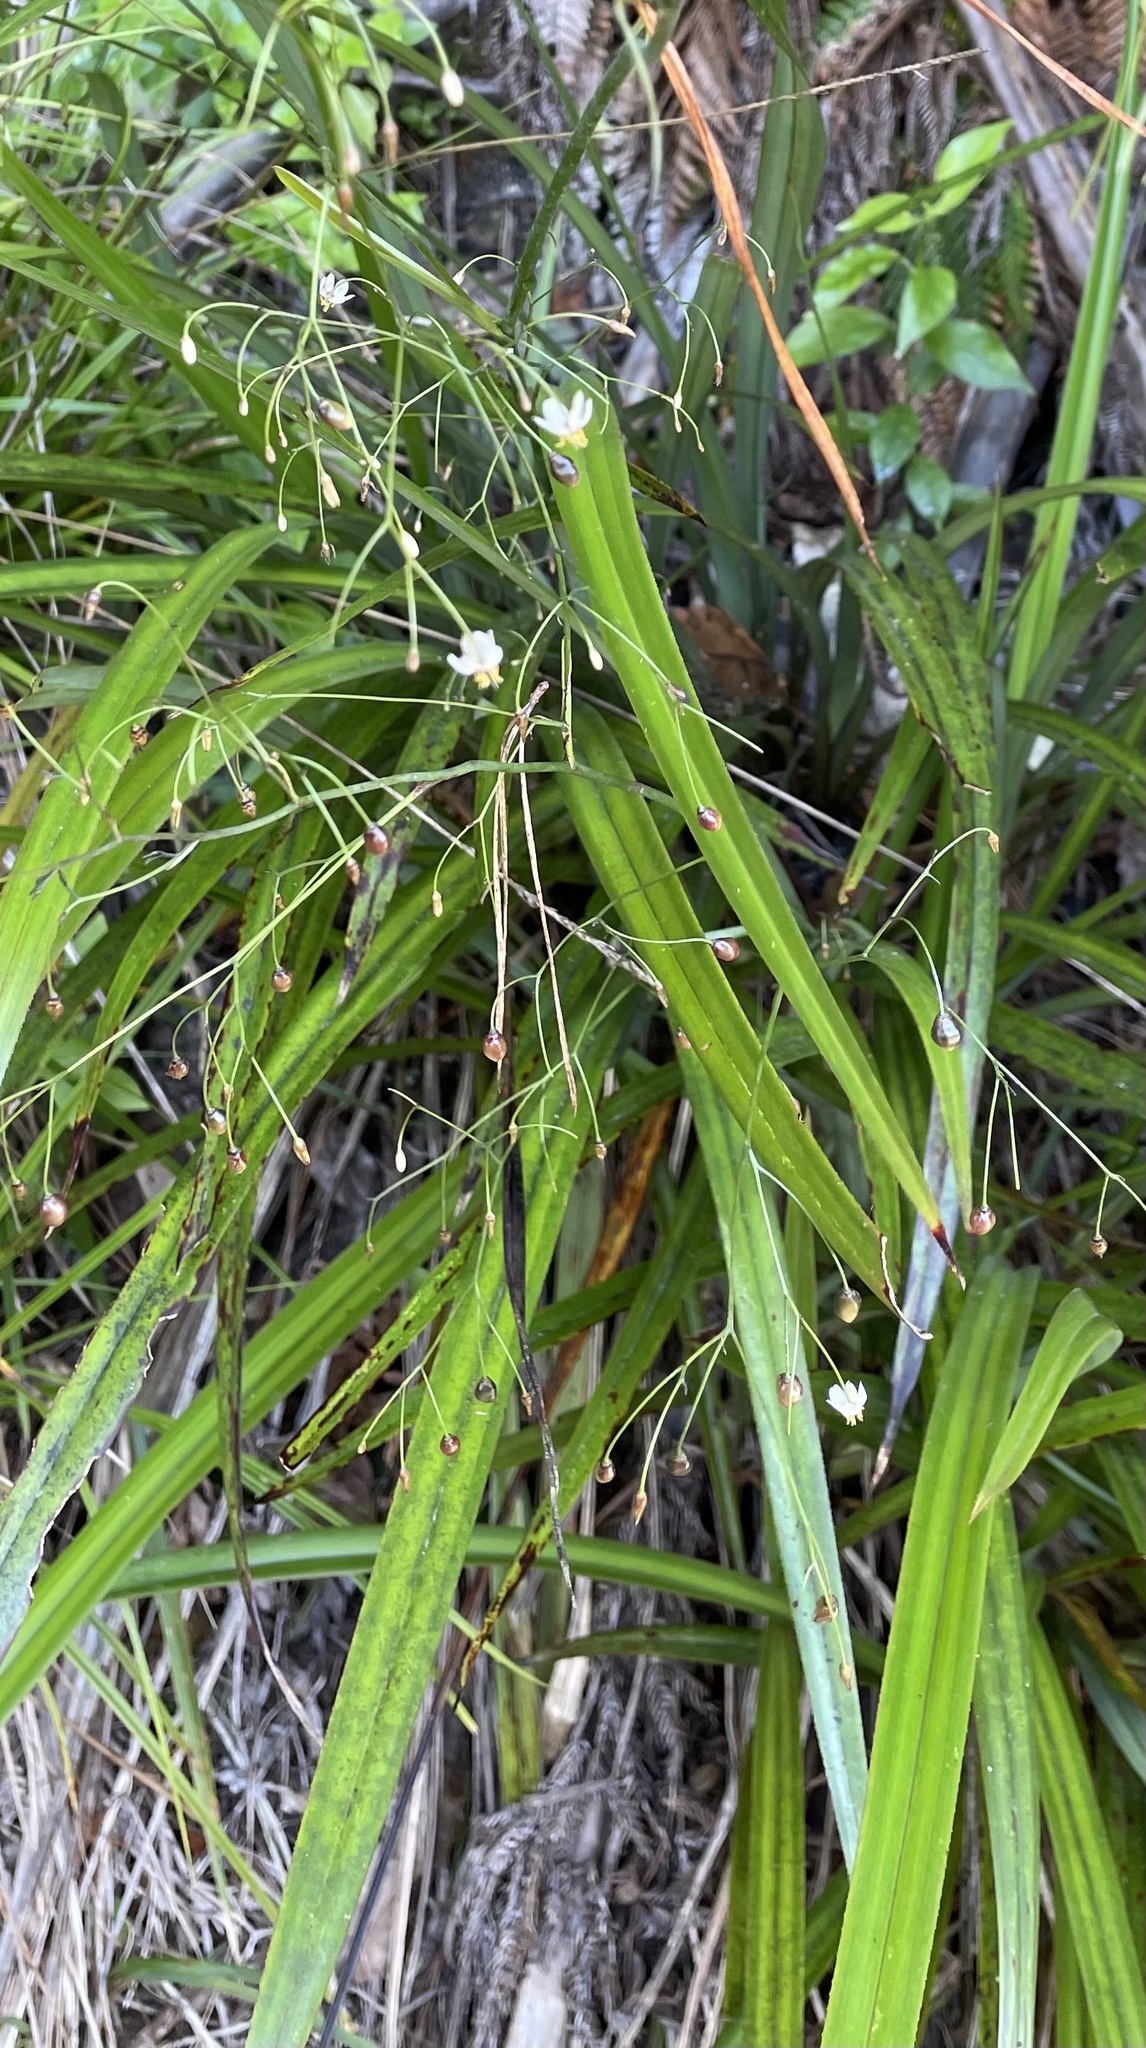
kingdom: Plantae
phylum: Tracheophyta
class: Liliopsida
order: Asparagales
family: Asphodelaceae
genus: Dianella
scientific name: Dianella nigra
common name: New zealand-blueberry
